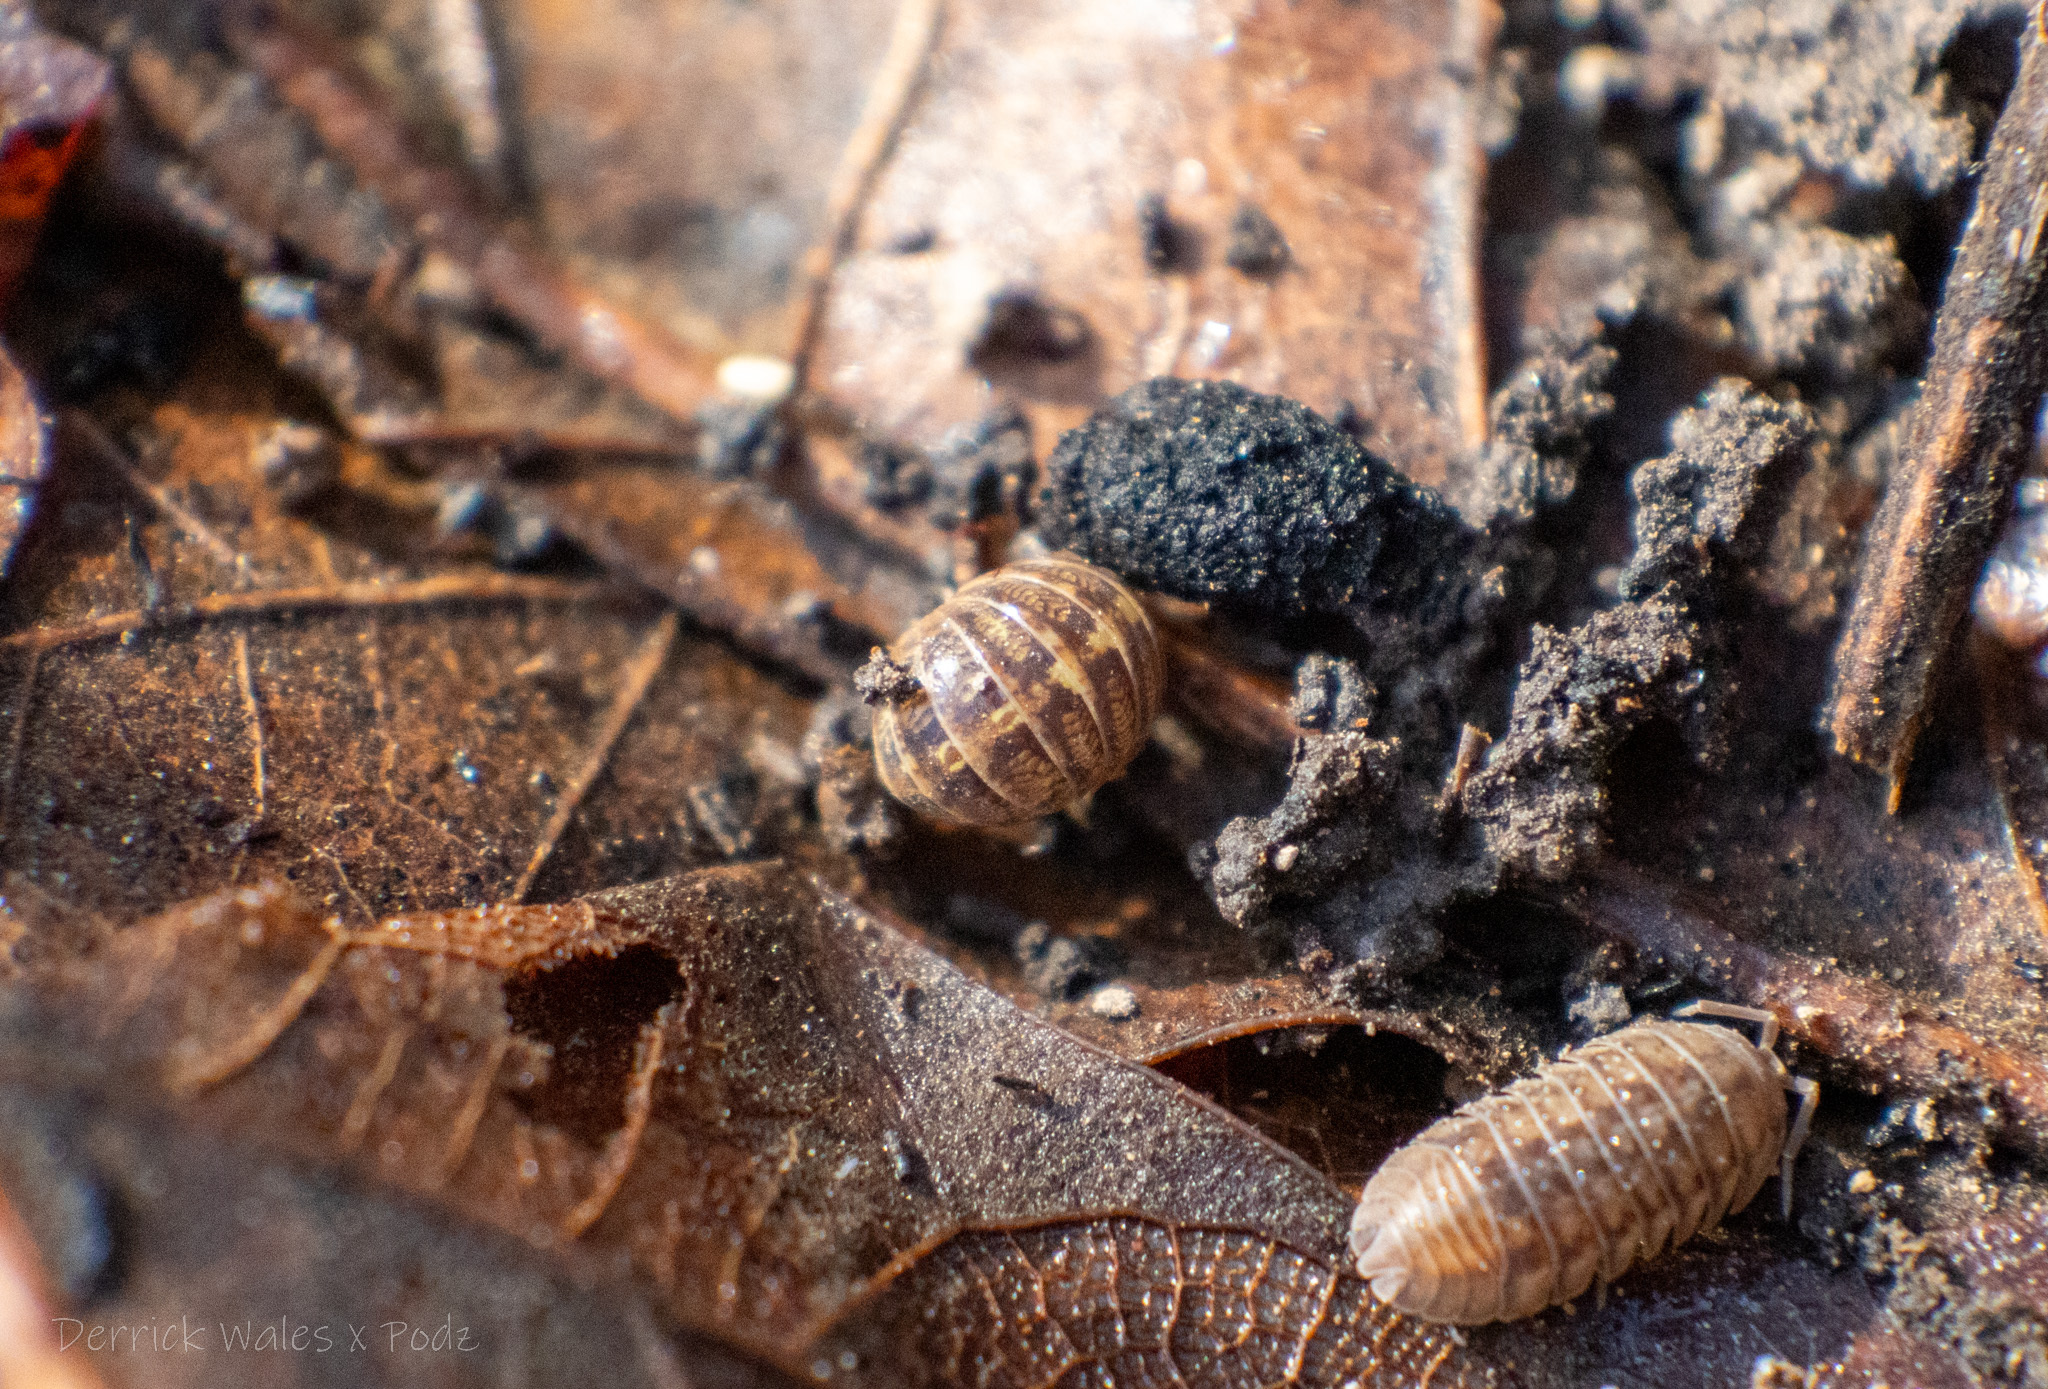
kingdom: Animalia
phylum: Arthropoda
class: Malacostraca
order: Isopoda
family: Armadillidiidae
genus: Armadillidium
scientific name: Armadillidium vulgare
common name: Common pill woodlouse
